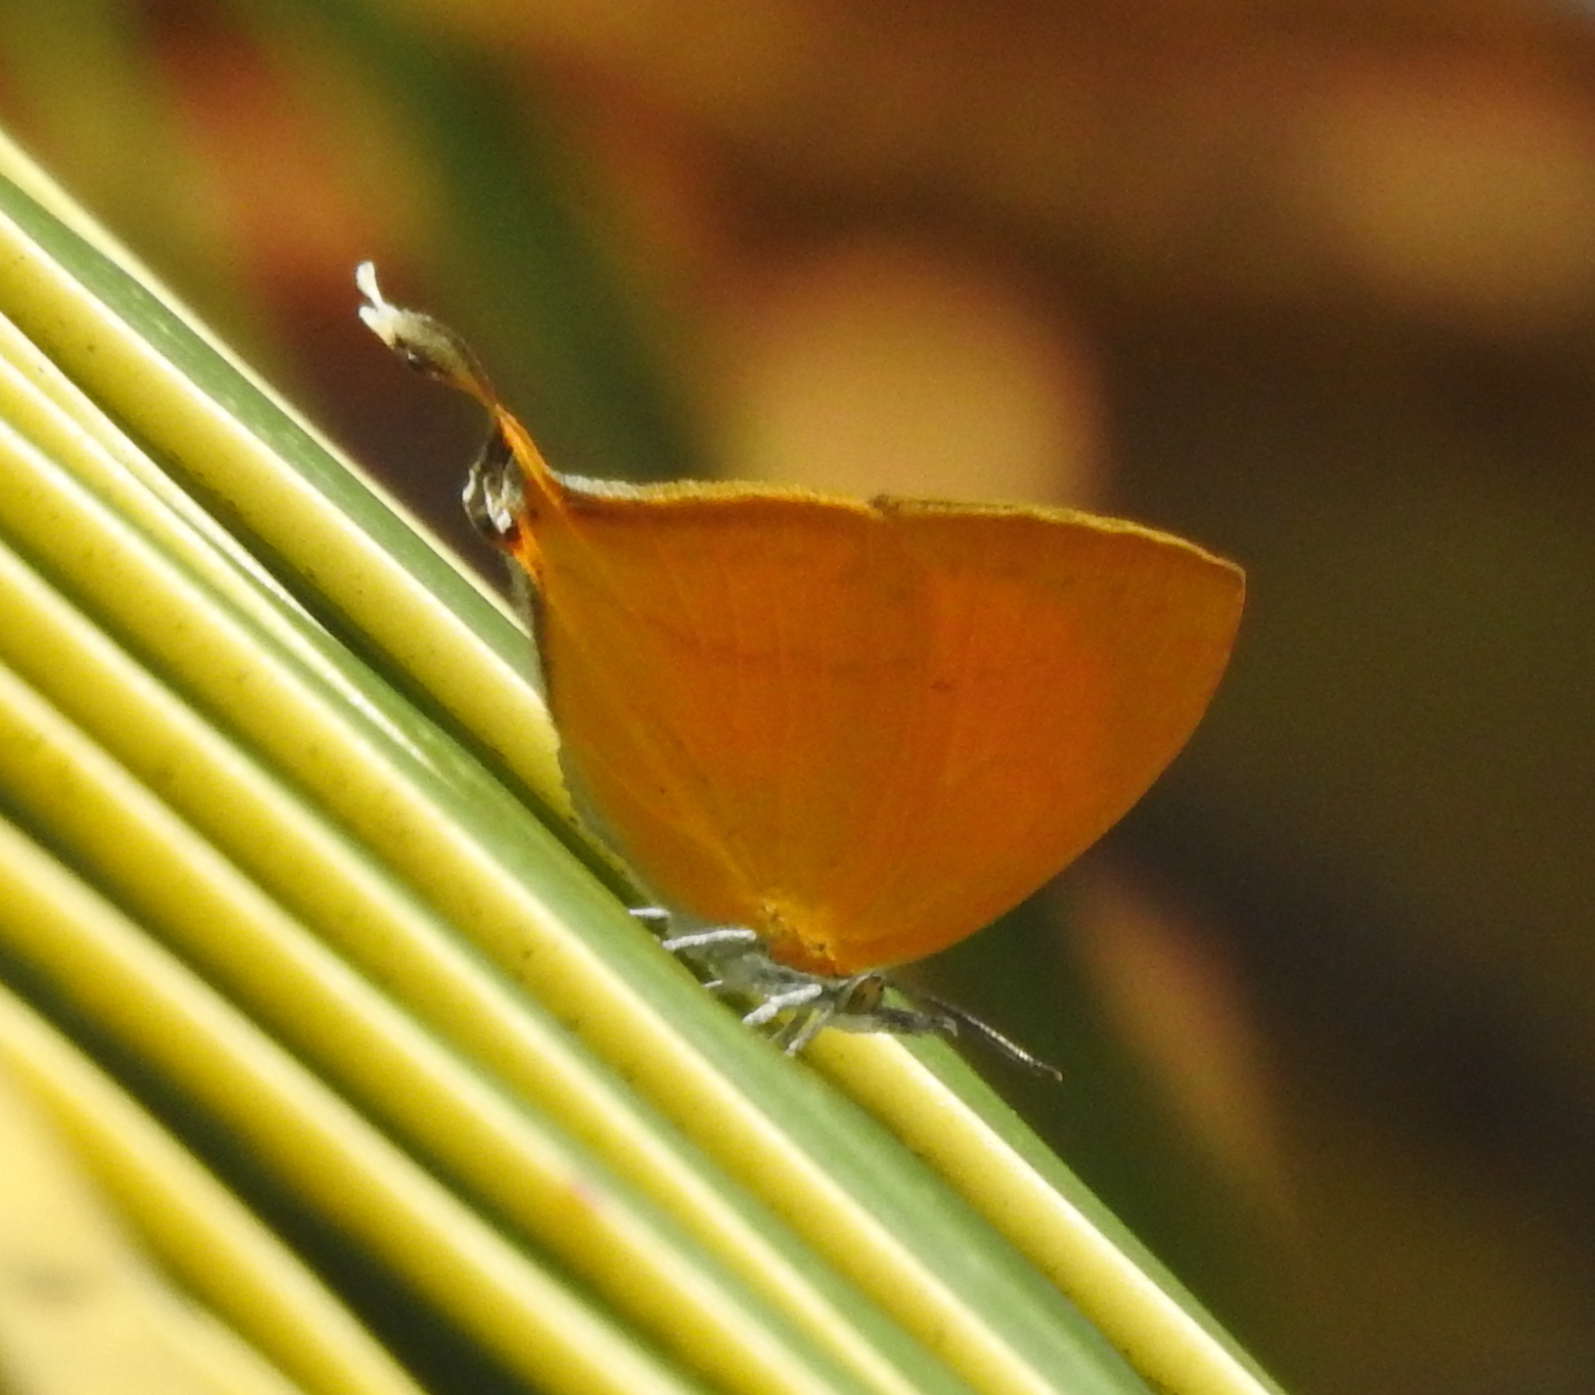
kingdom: Animalia
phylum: Arthropoda
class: Insecta
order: Lepidoptera
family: Lycaenidae
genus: Loxura
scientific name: Loxura atymnus
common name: Common yamfly
